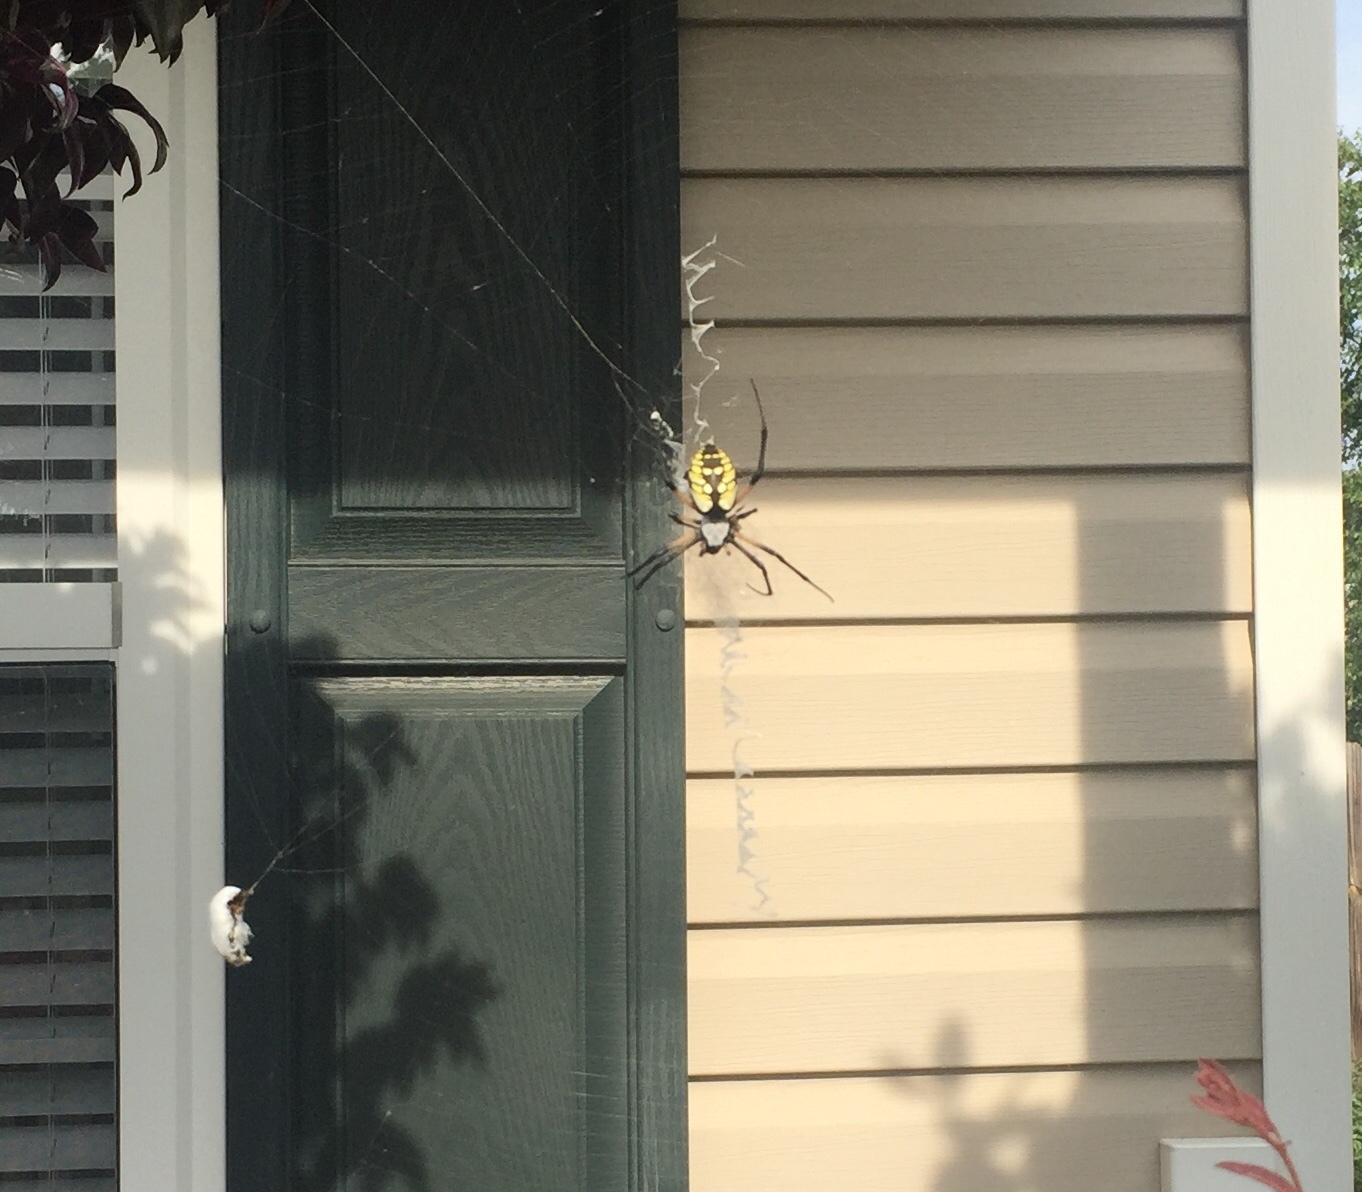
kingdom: Animalia
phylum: Arthropoda
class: Arachnida
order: Araneae
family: Araneidae
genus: Argiope
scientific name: Argiope aurantia
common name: Orb weavers
